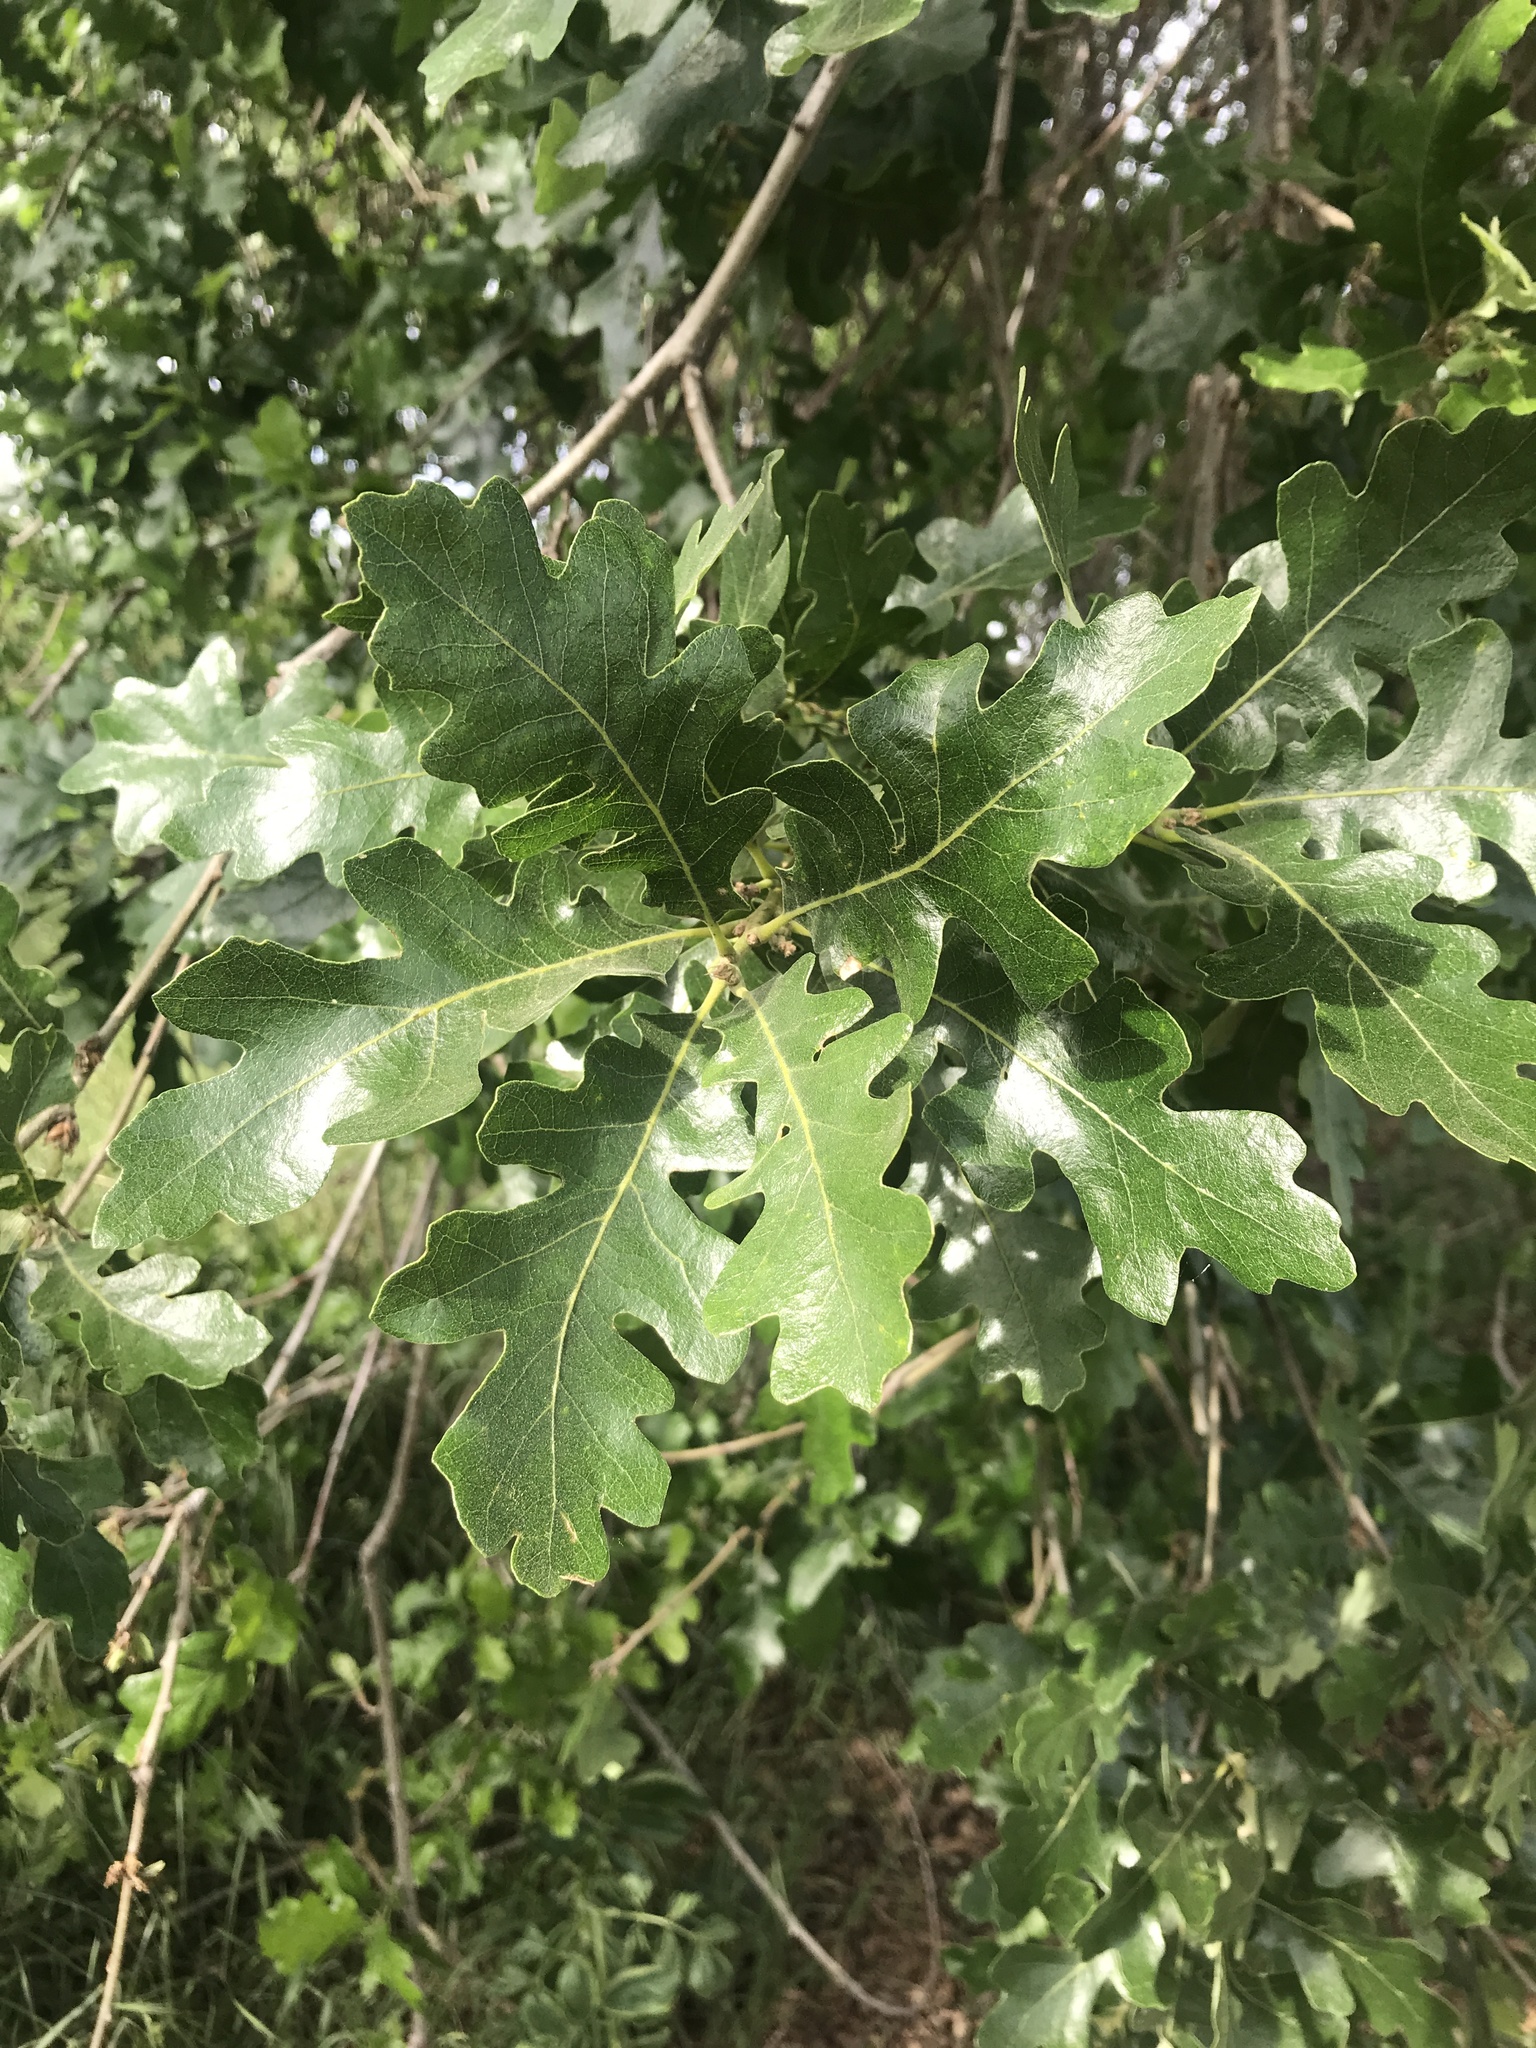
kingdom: Plantae
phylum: Tracheophyta
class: Magnoliopsida
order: Fagales
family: Fagaceae
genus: Quercus
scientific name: Quercus lobata
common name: Valley oak
